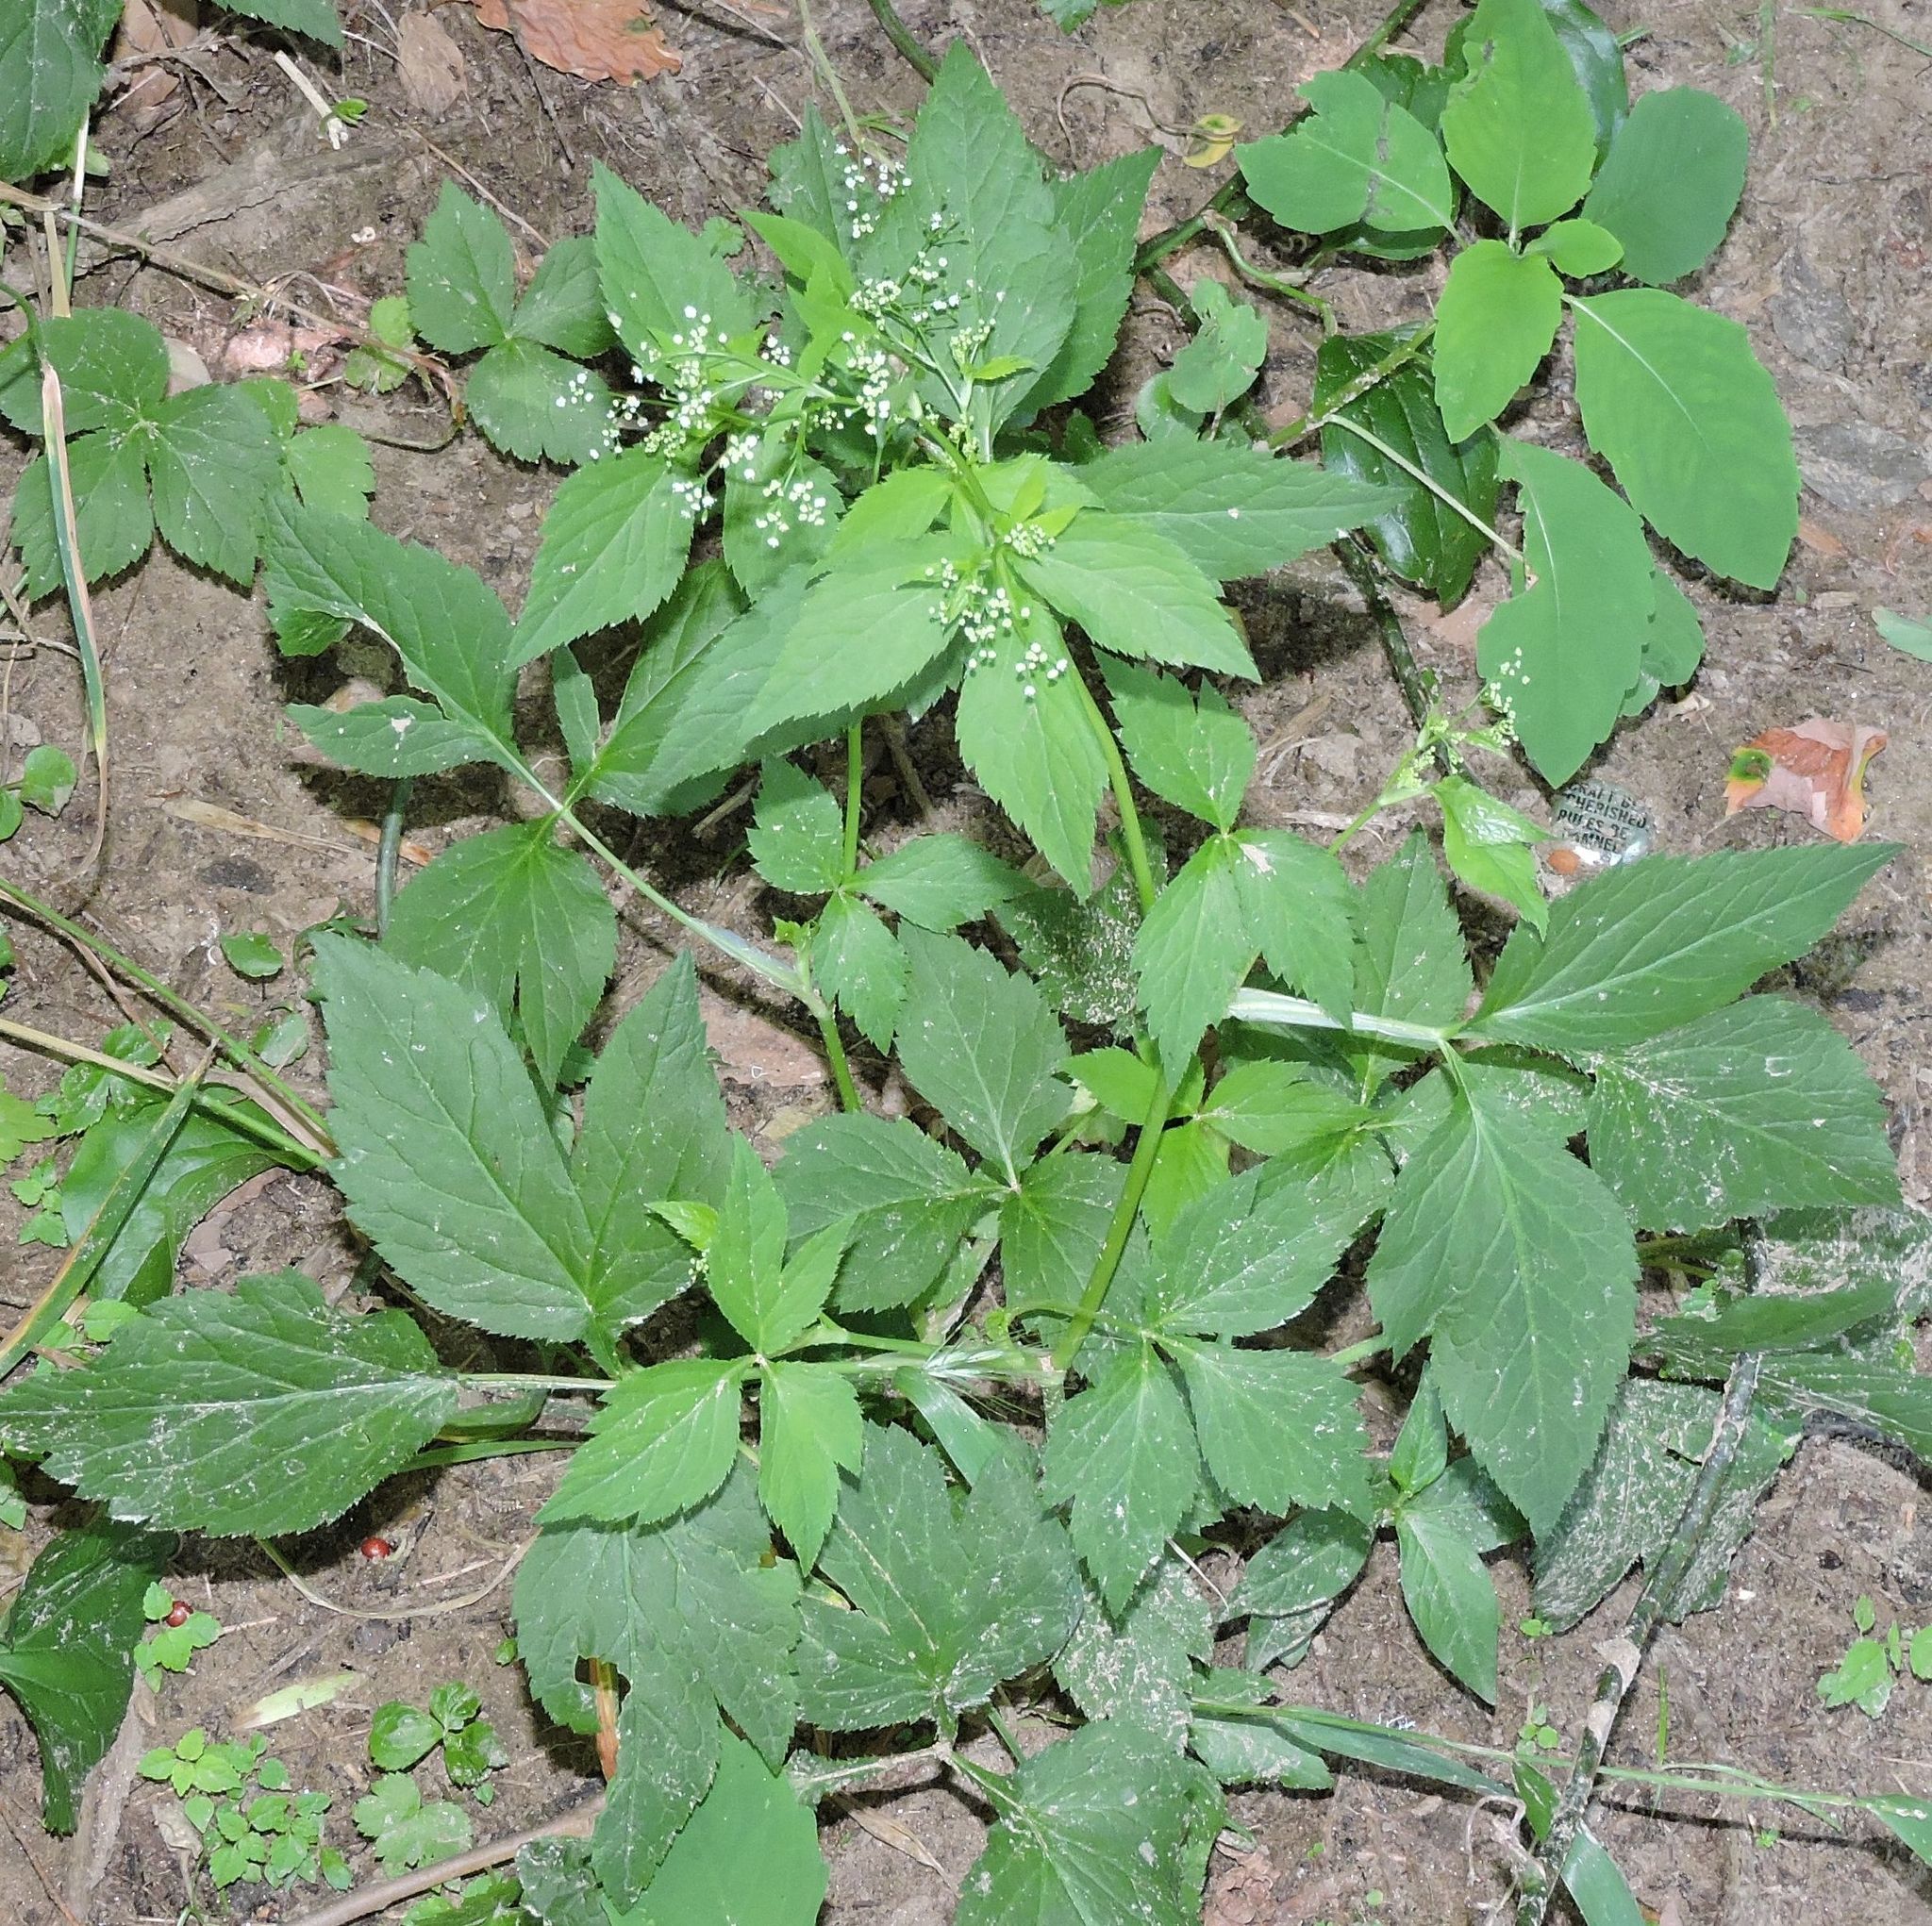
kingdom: Plantae
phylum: Tracheophyta
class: Magnoliopsida
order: Apiales
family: Apiaceae
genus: Cryptotaenia
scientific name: Cryptotaenia canadensis
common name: Honewort
